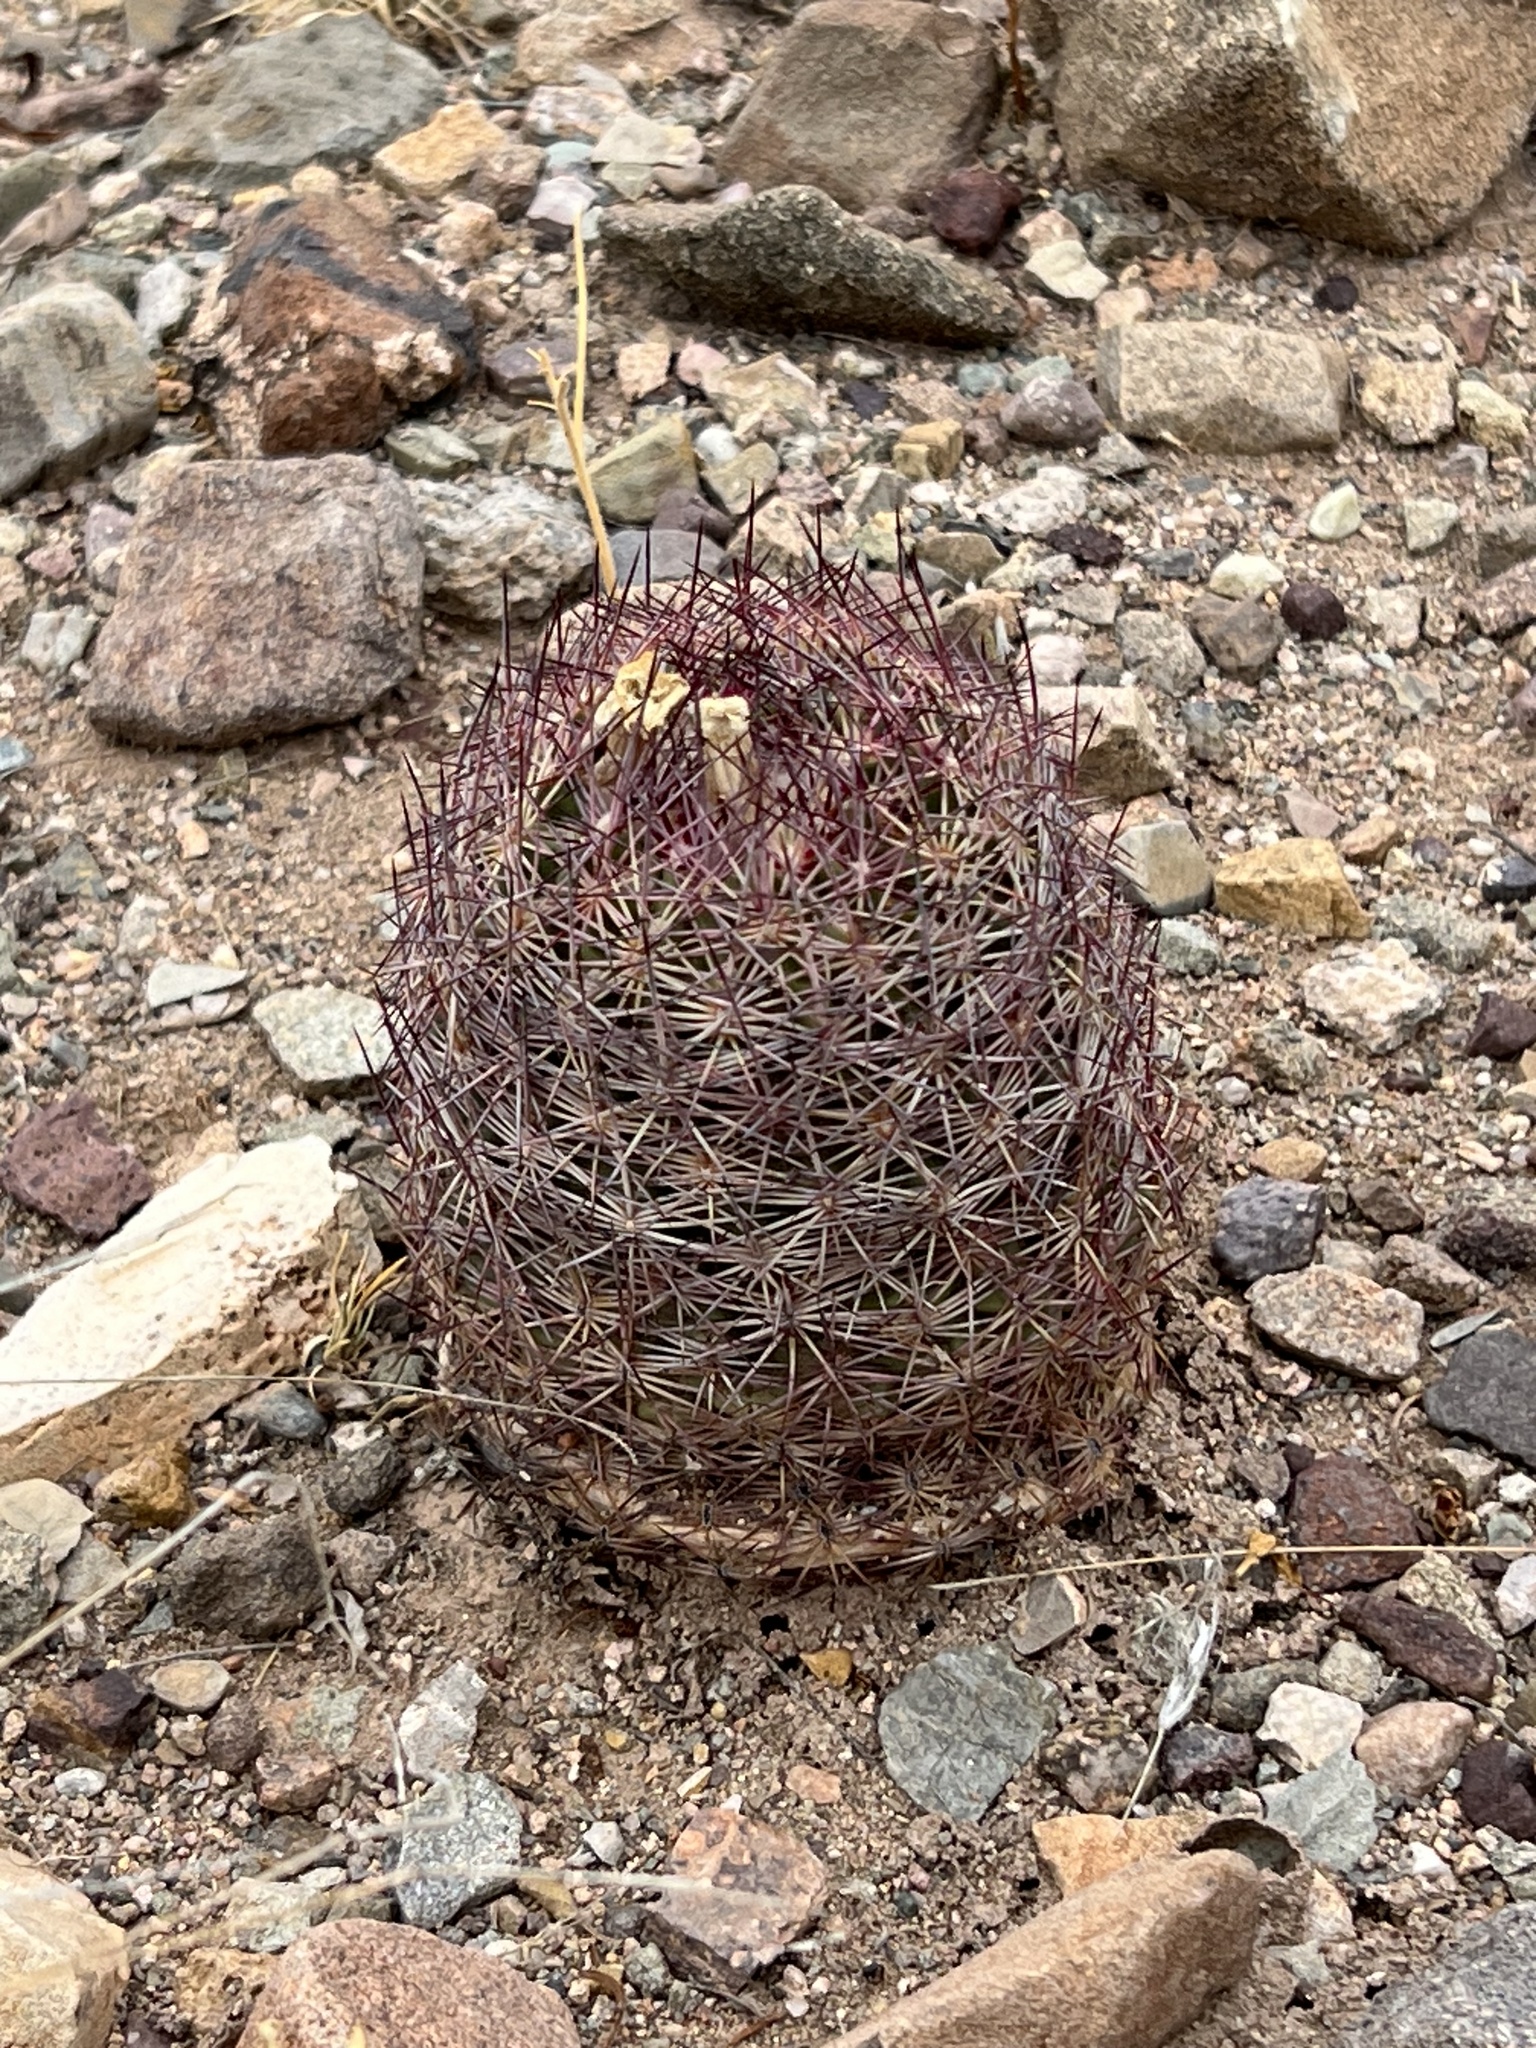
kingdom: Plantae
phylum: Tracheophyta
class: Magnoliopsida
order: Caryophyllales
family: Cactaceae
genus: Sclerocactus
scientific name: Sclerocactus johnsonii
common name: Eight-spine fishhook cactus
